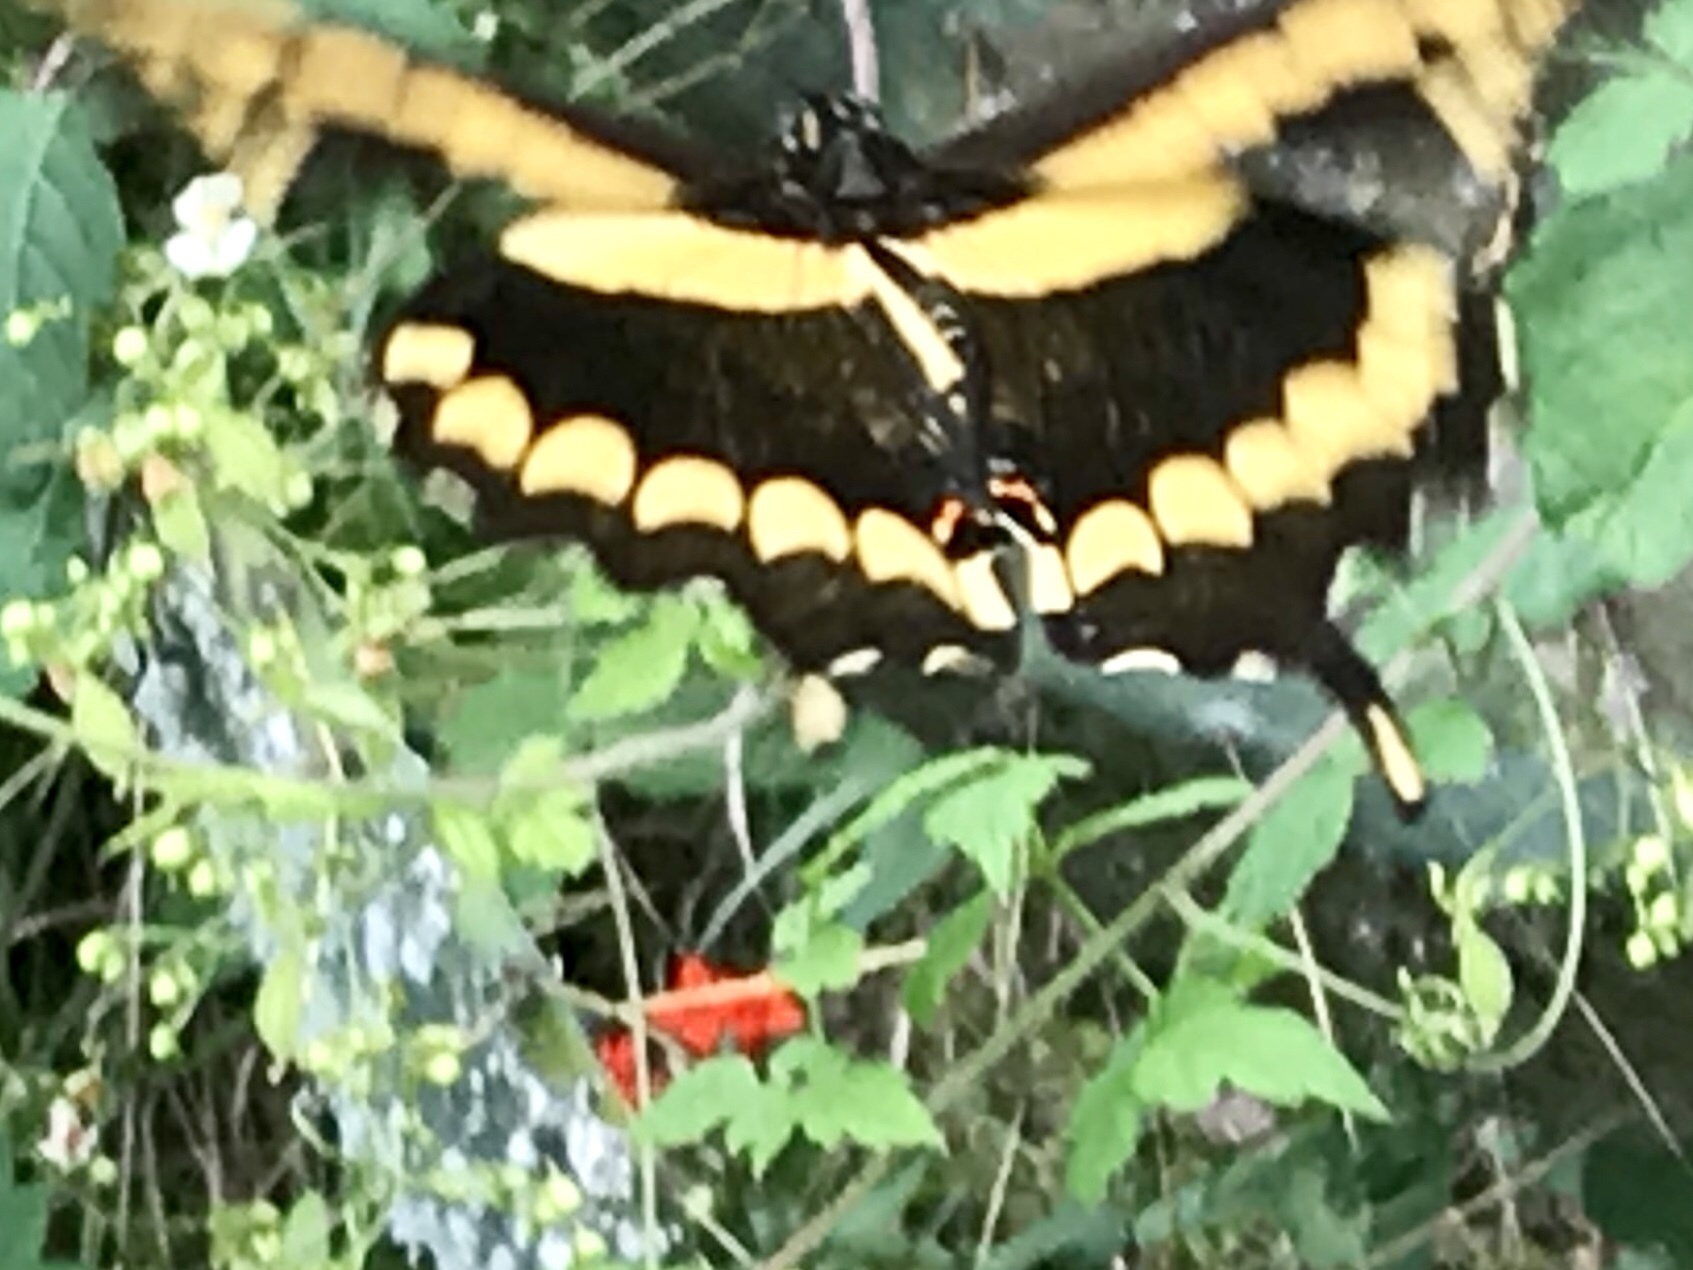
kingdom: Animalia
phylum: Arthropoda
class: Insecta
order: Lepidoptera
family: Papilionidae
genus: Papilio
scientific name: Papilio rumiko
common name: Western giant swallowtail
